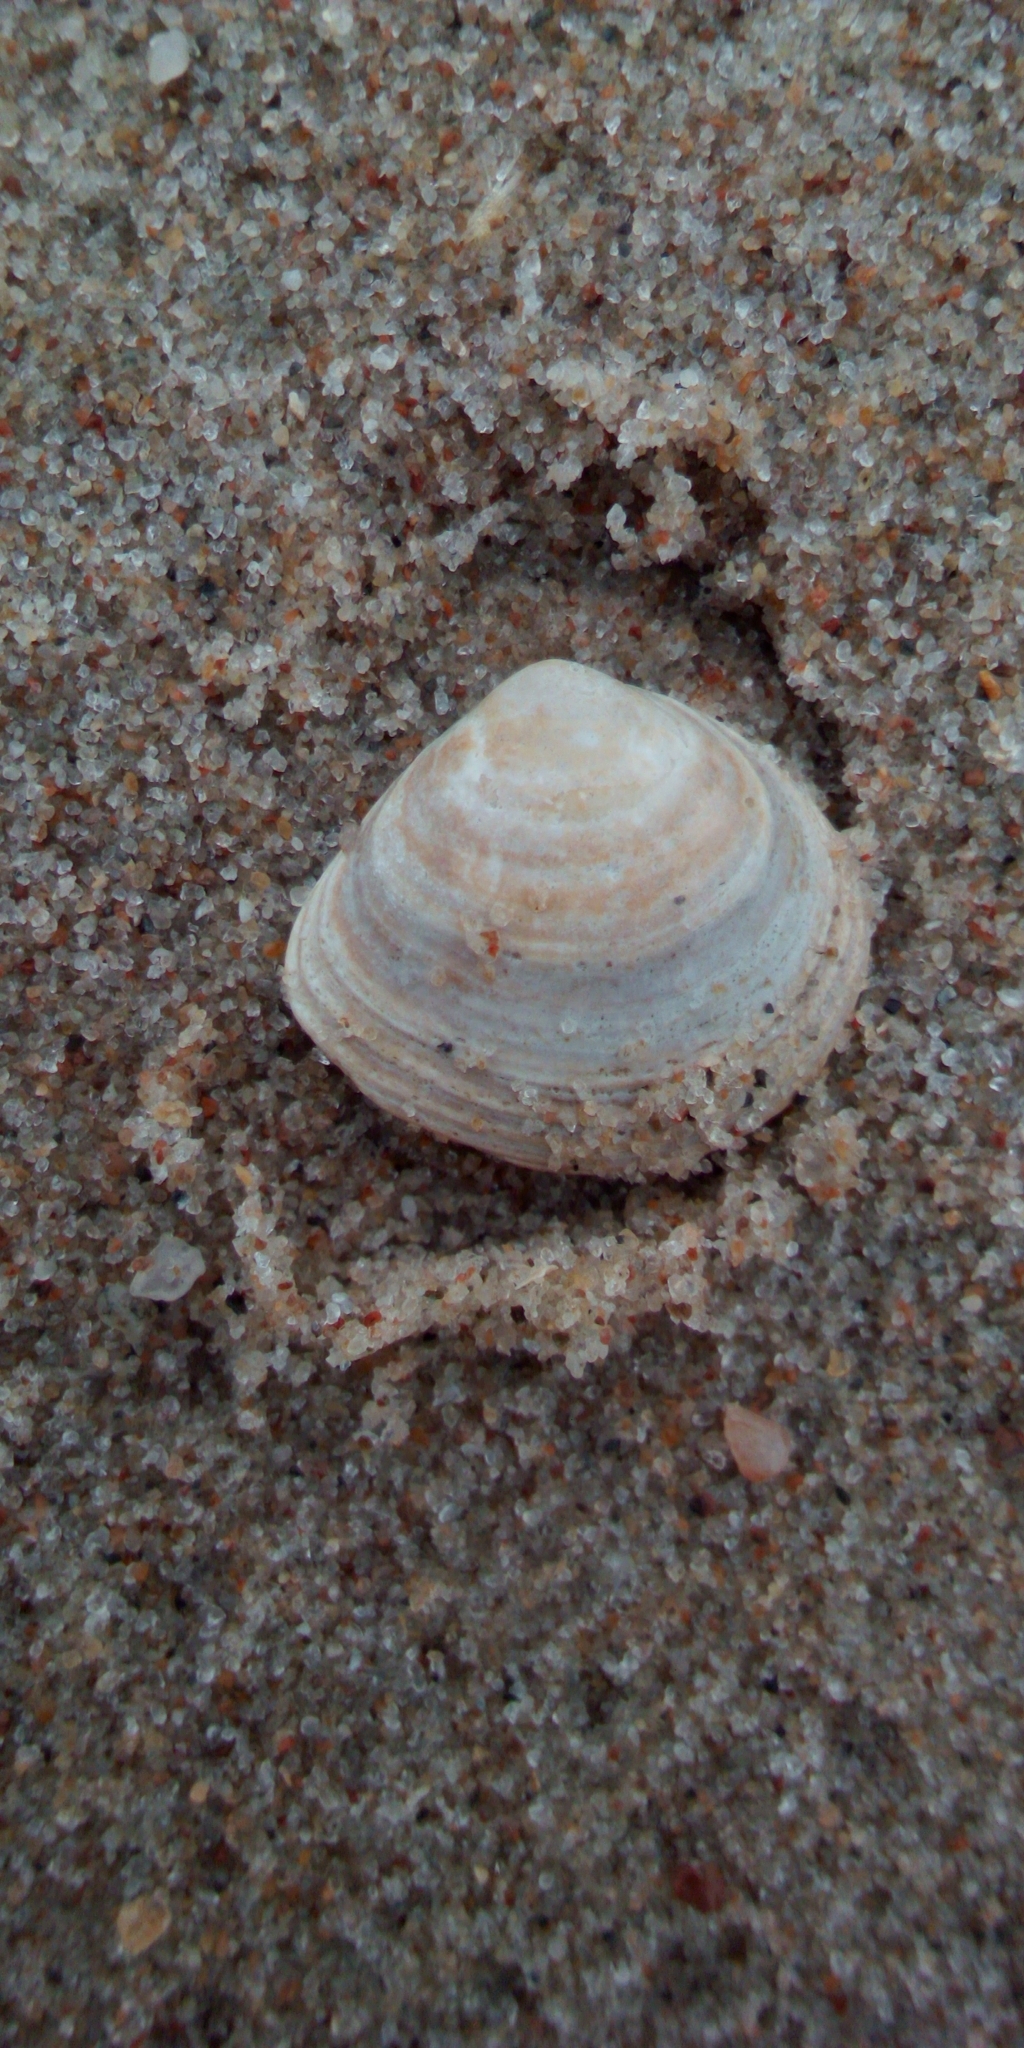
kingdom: Animalia
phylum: Mollusca
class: Bivalvia
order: Cardiida
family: Tellinidae
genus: Macoma
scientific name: Macoma balthica
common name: Baltic tellin
